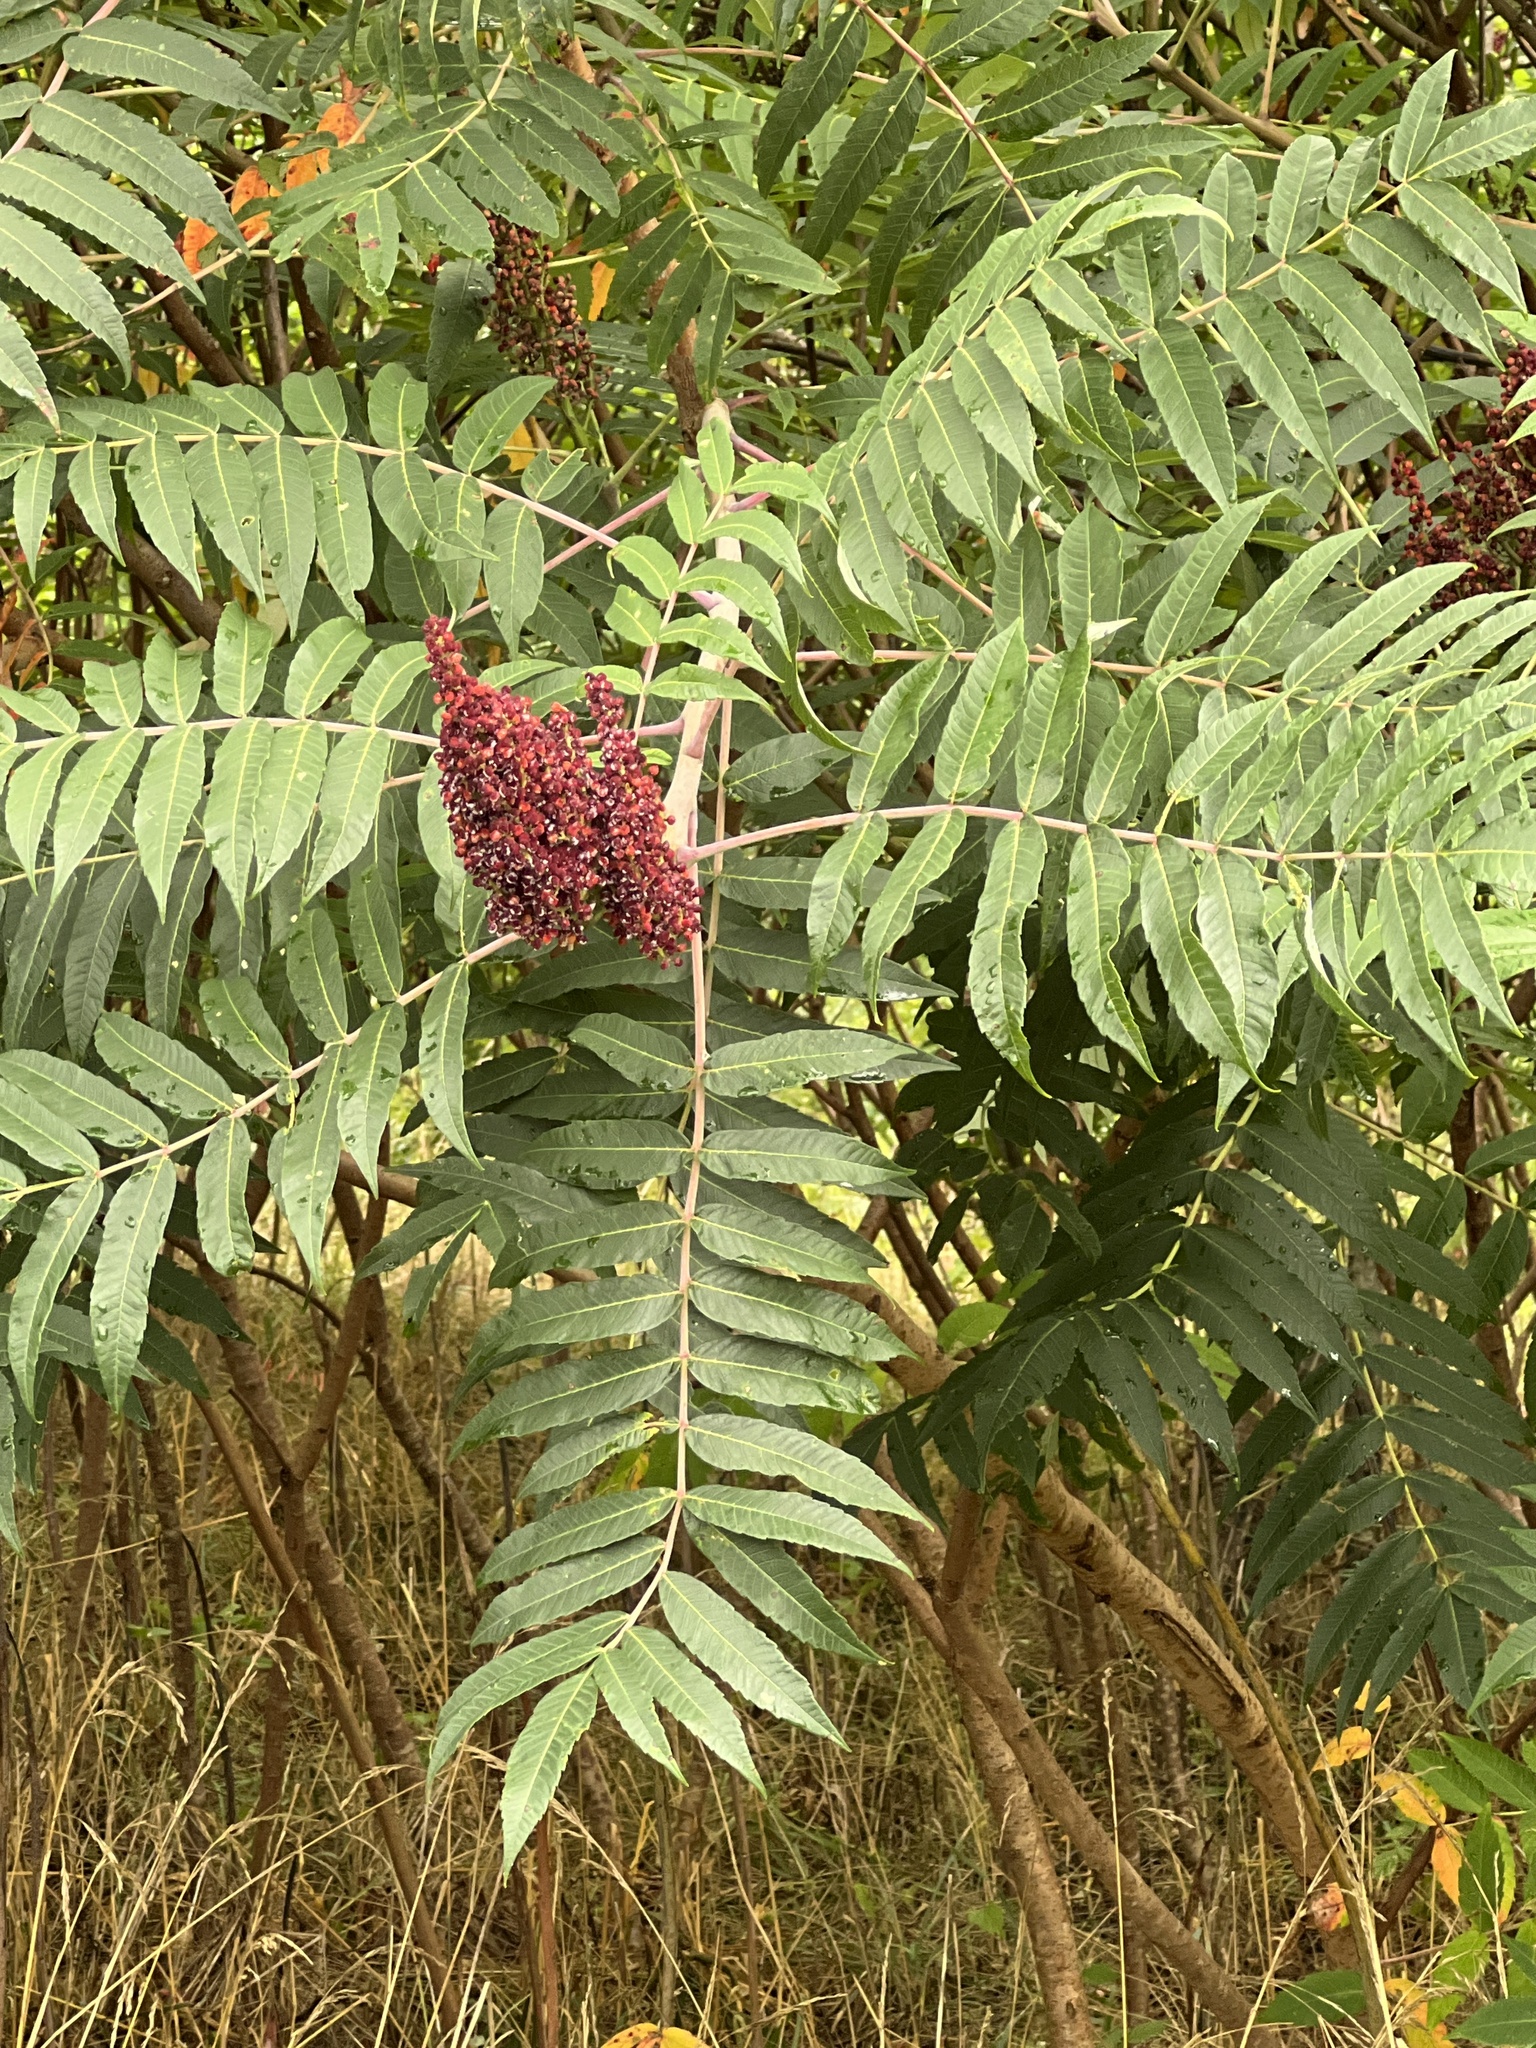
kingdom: Plantae
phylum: Tracheophyta
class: Magnoliopsida
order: Sapindales
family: Anacardiaceae
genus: Rhus
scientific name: Rhus glabra
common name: Scarlet sumac
